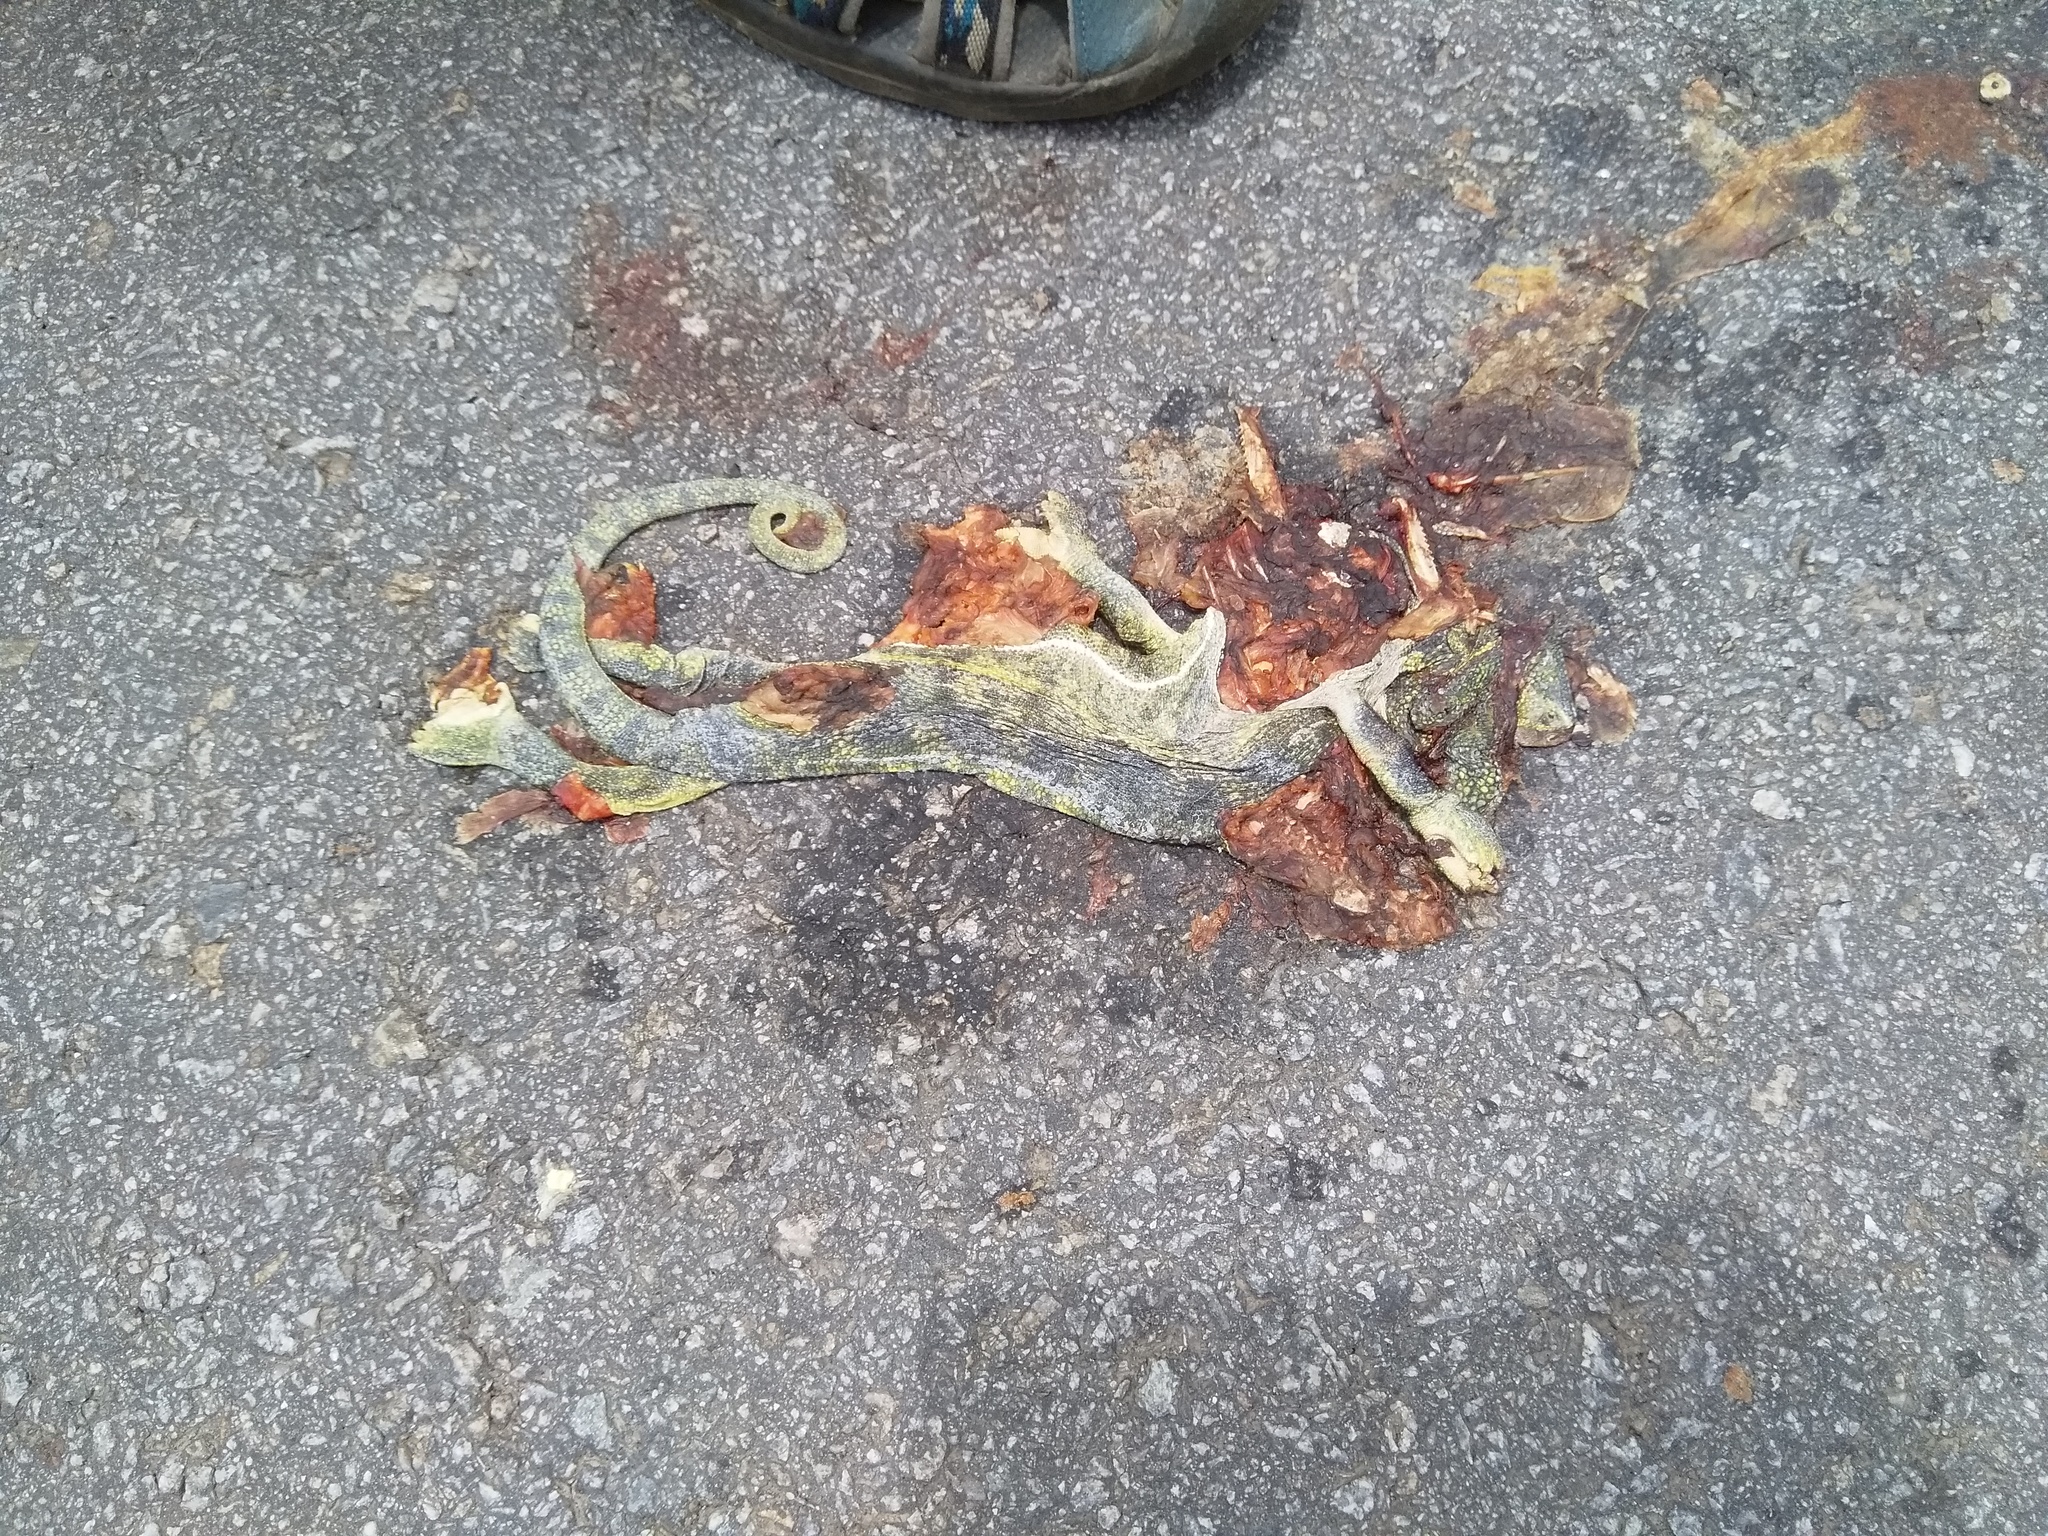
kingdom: Animalia
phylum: Chordata
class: Squamata
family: Chamaeleonidae
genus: Chamaeleo
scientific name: Chamaeleo zeylanicus
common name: Indian chameleon
